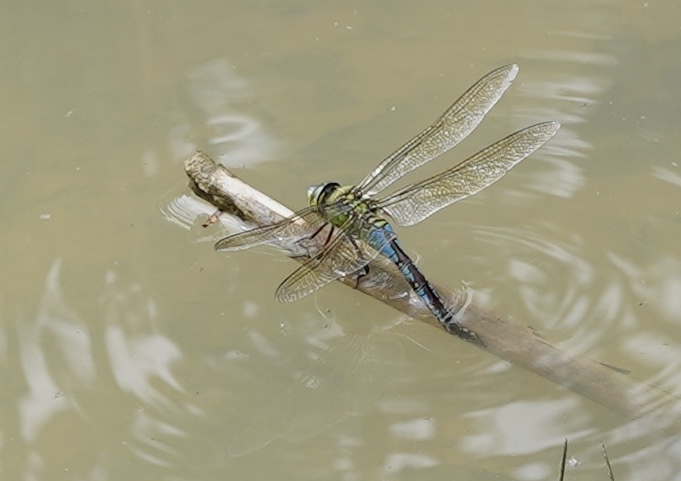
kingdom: Animalia
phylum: Arthropoda
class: Insecta
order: Odonata
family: Aeshnidae
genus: Anax
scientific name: Anax imperator
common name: Emperor dragonfly
